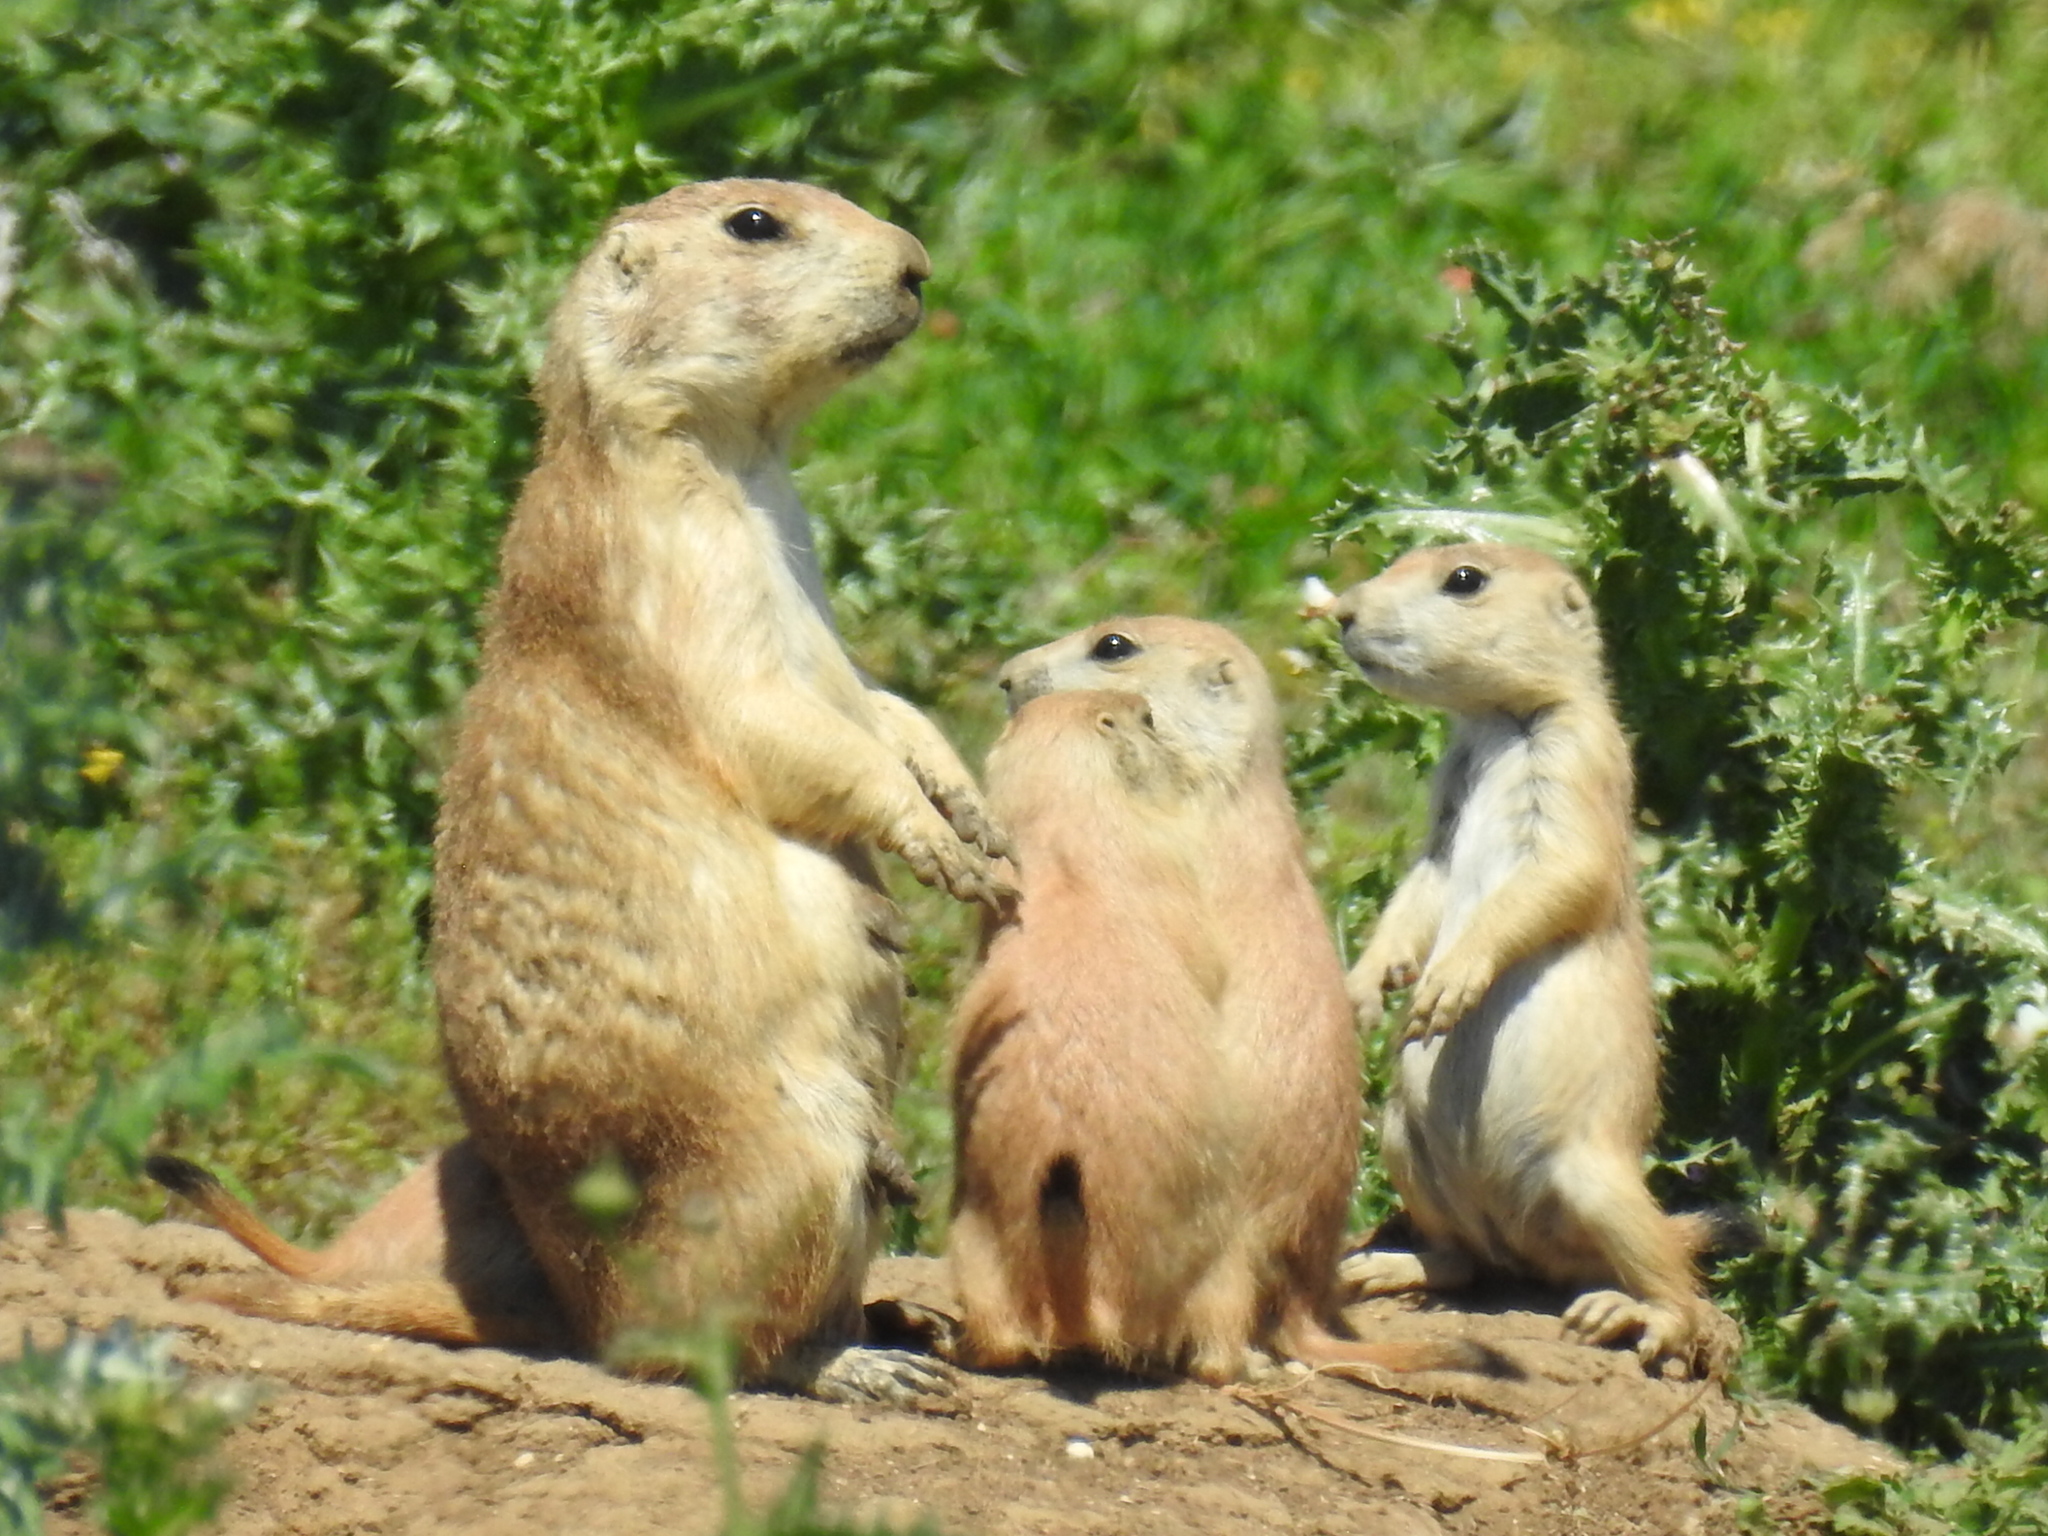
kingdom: Animalia
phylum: Chordata
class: Mammalia
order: Rodentia
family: Sciuridae
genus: Cynomys
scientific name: Cynomys ludovicianus
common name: Black-tailed prairie dog
